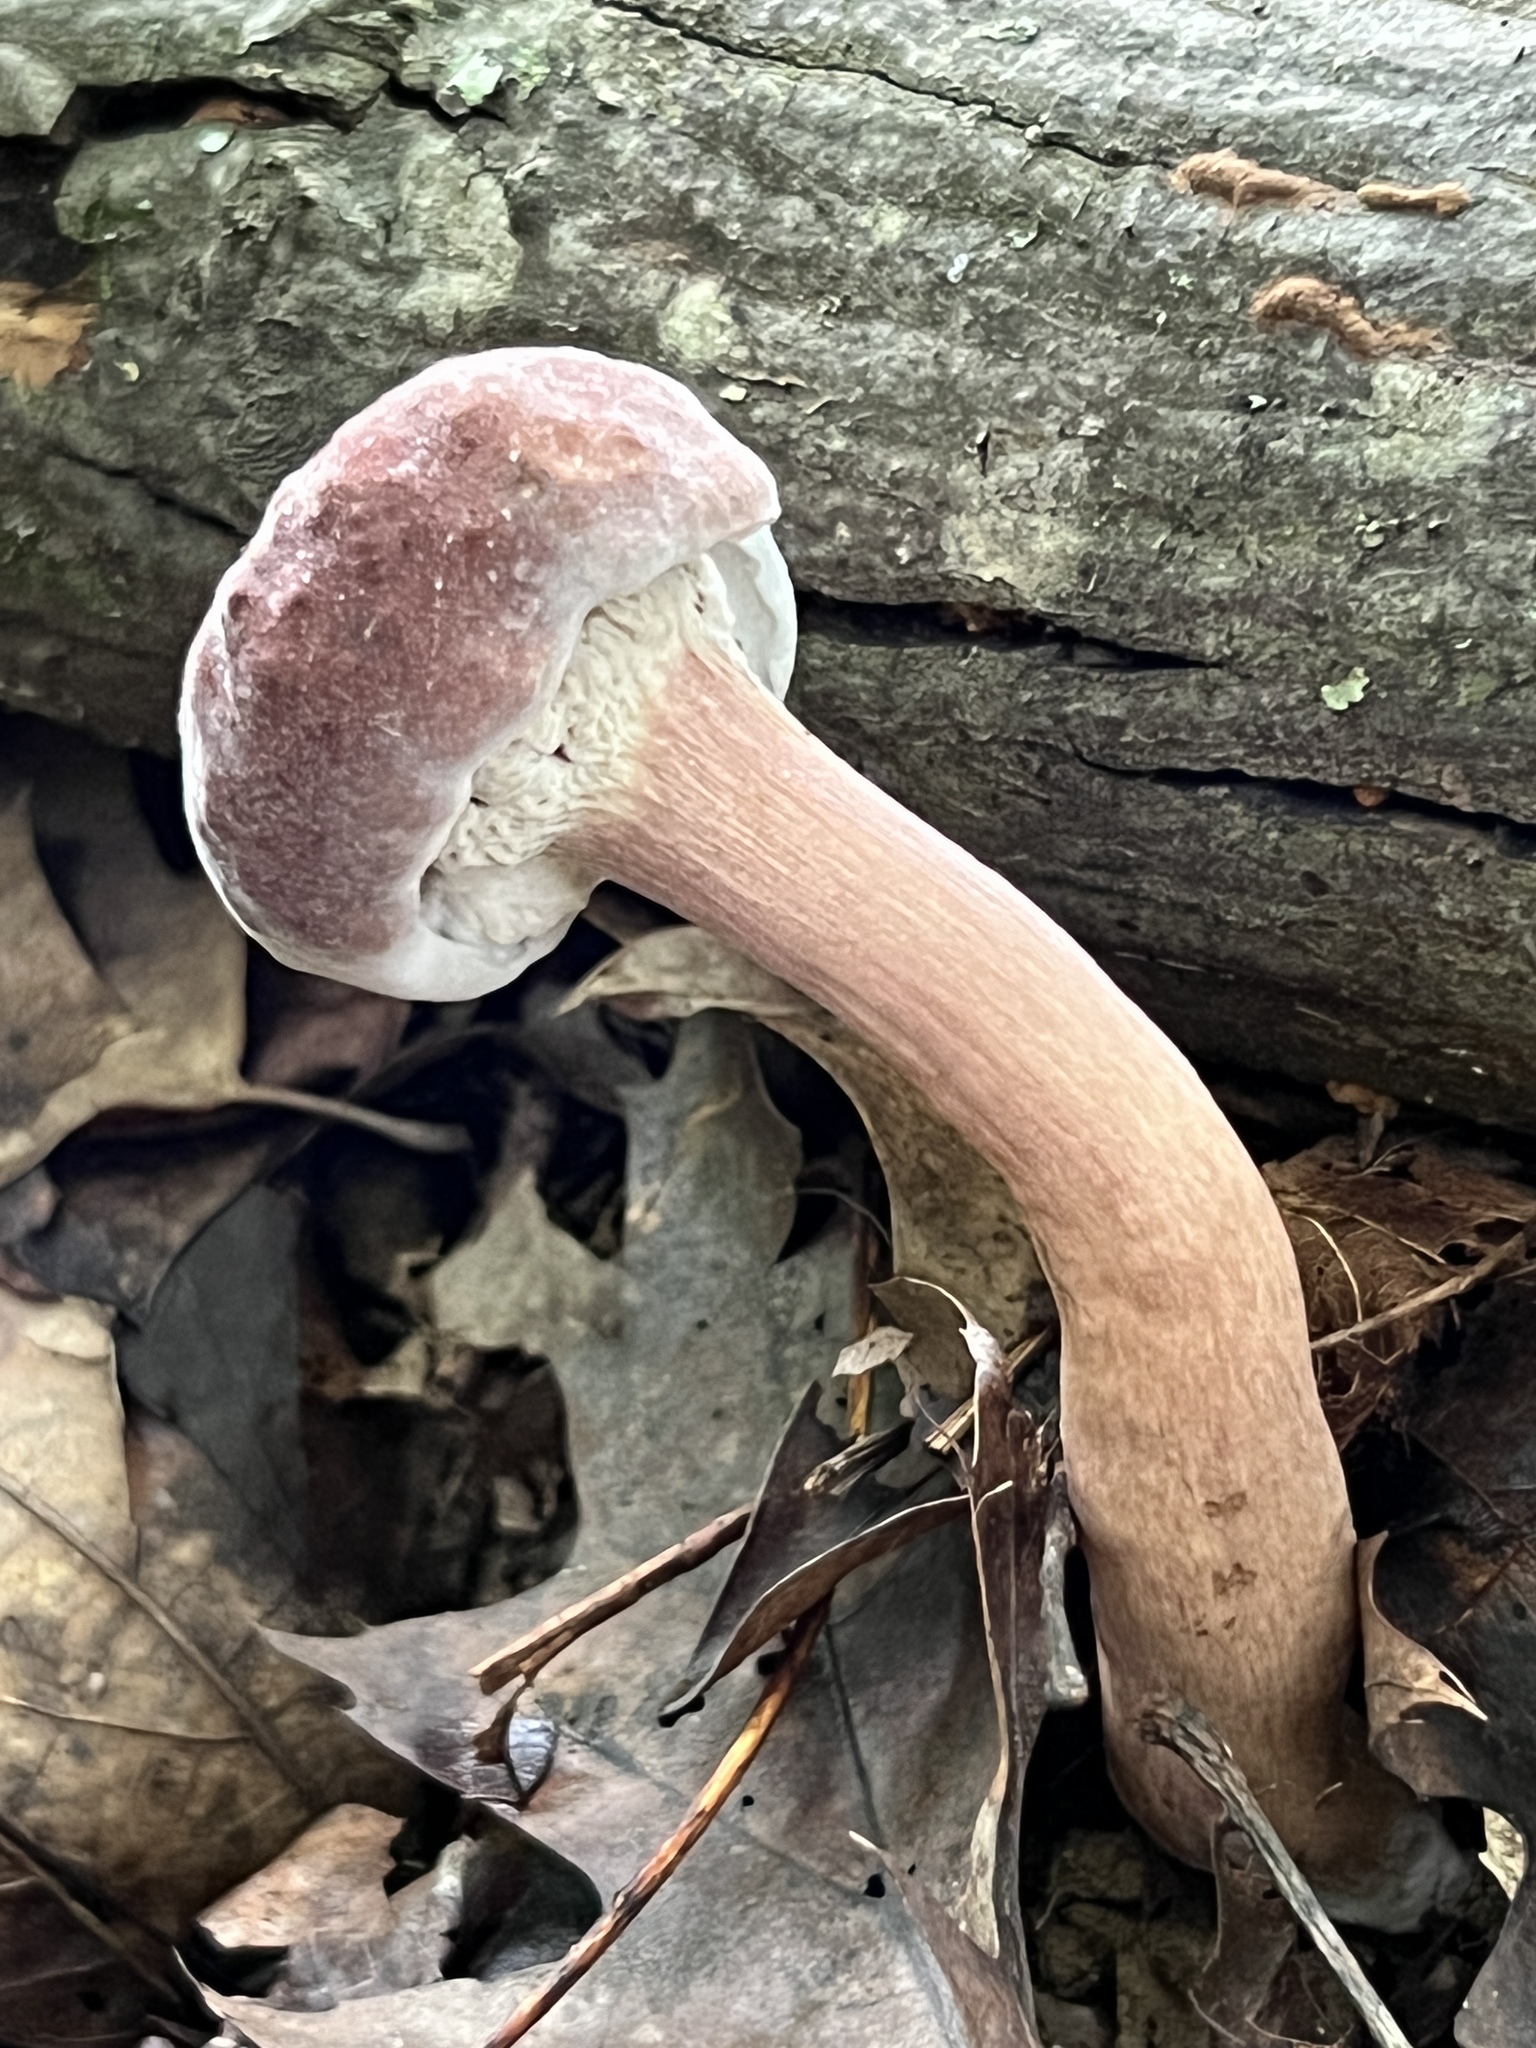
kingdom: Fungi
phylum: Basidiomycota
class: Agaricomycetes
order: Boletales
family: Boletaceae
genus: Tylopilus
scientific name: Tylopilus rubrobrunneus
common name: Reddish brown bitter bolete
